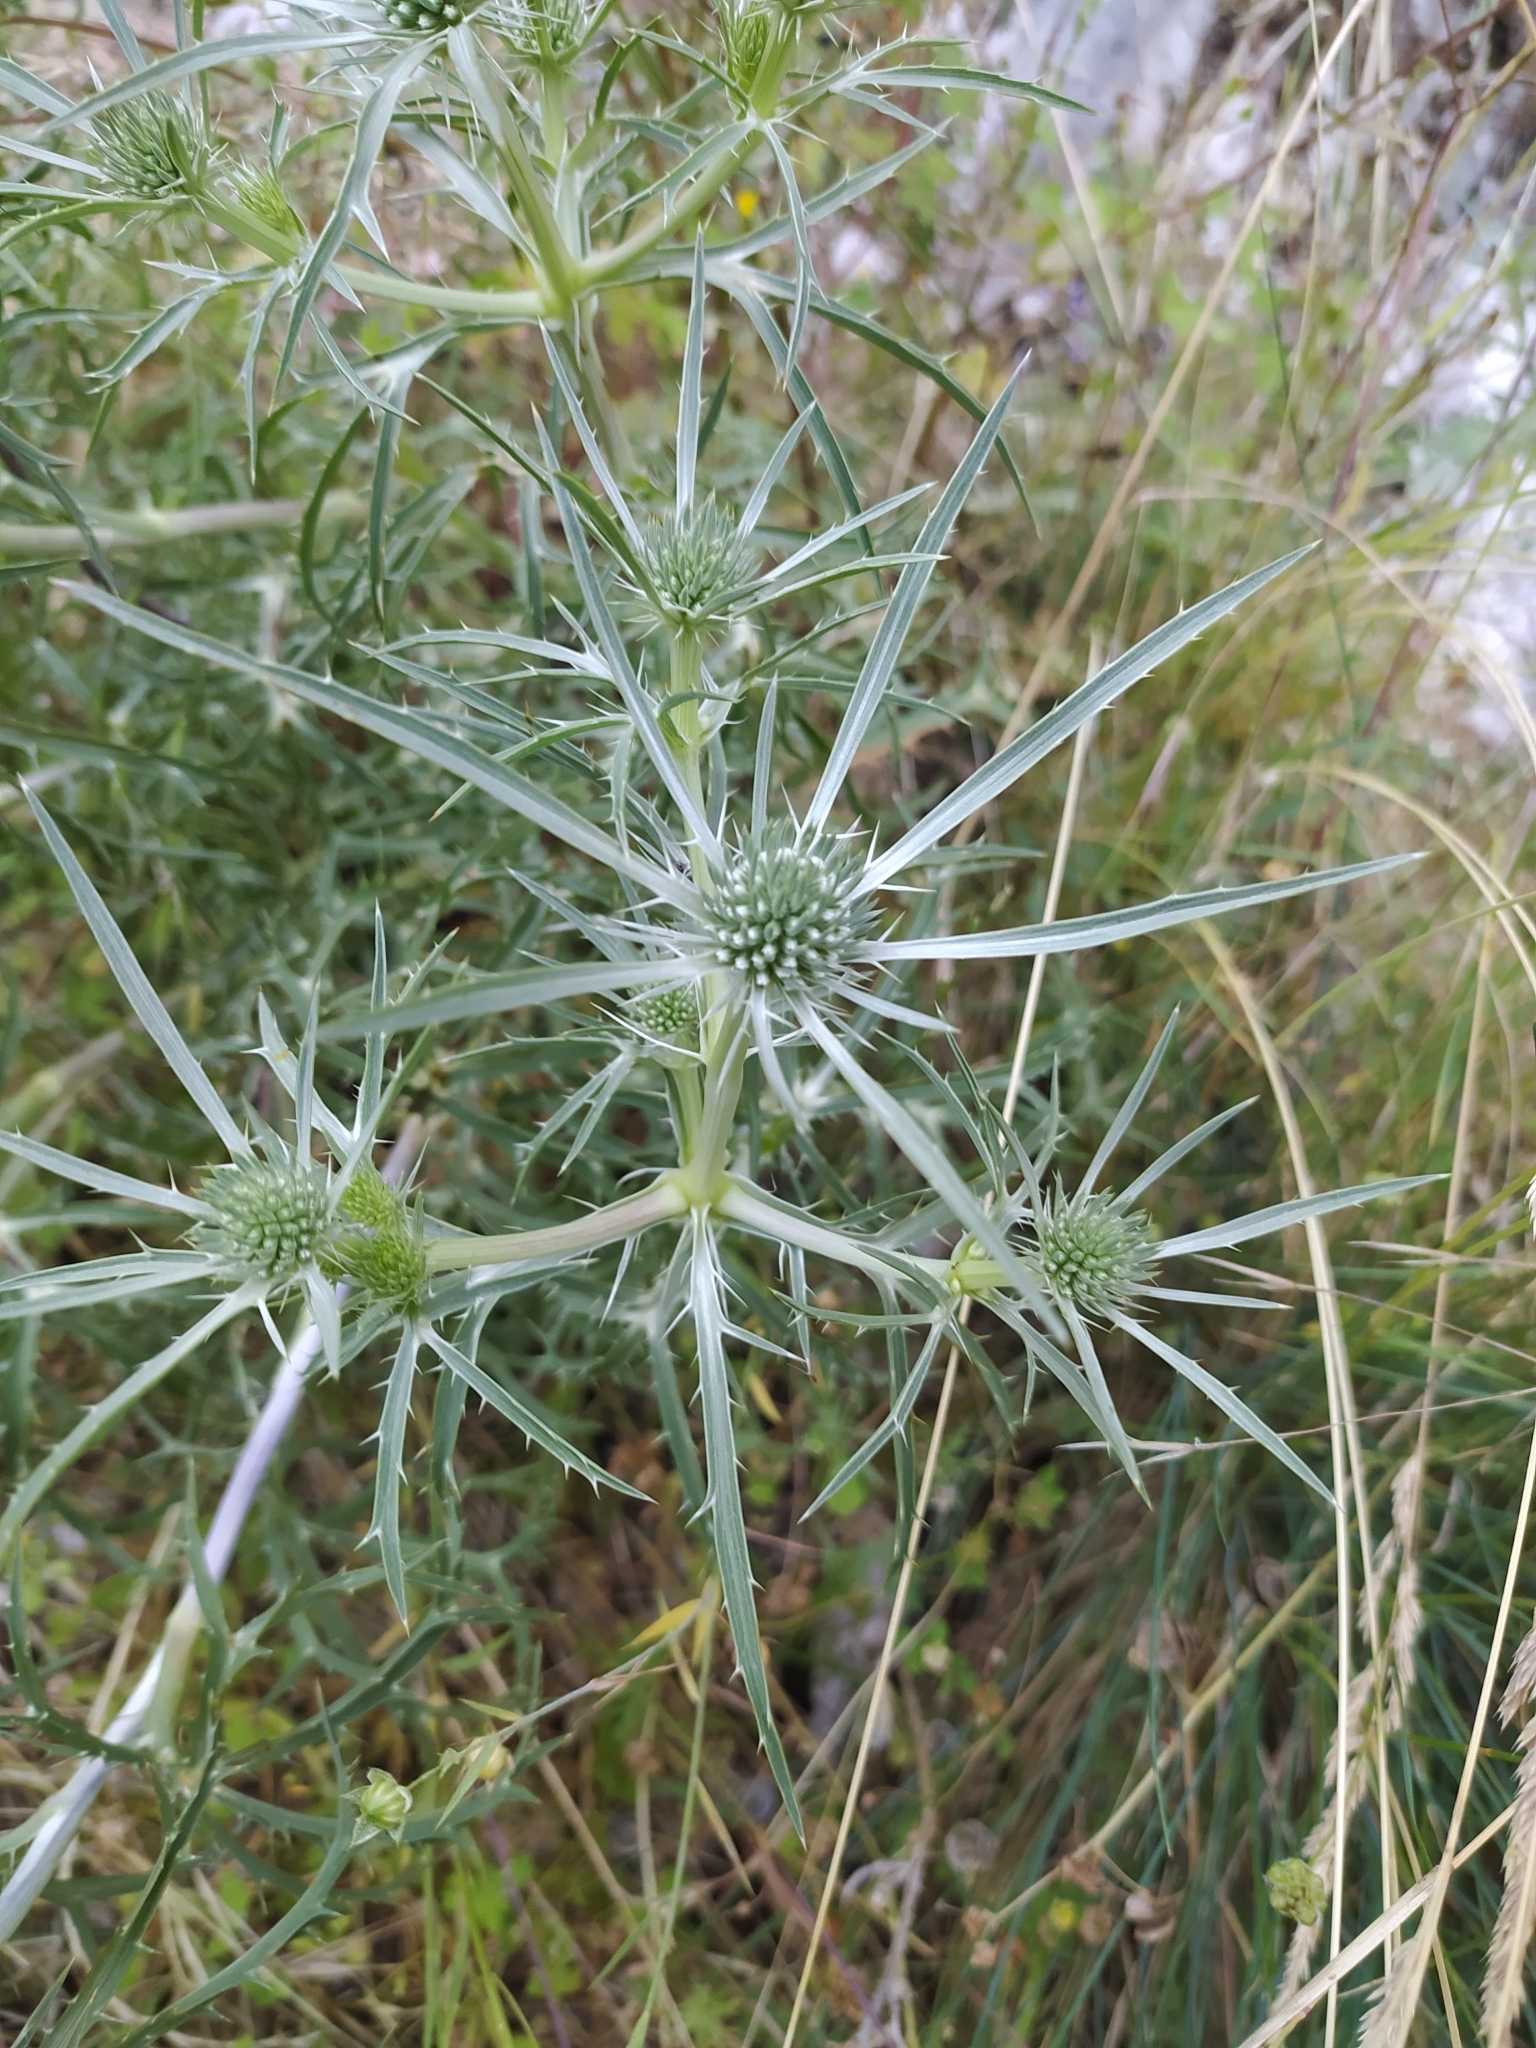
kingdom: Plantae
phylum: Tracheophyta
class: Magnoliopsida
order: Apiales
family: Apiaceae
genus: Eryngium
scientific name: Eryngium amethystinum
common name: Amethyst eryngo
